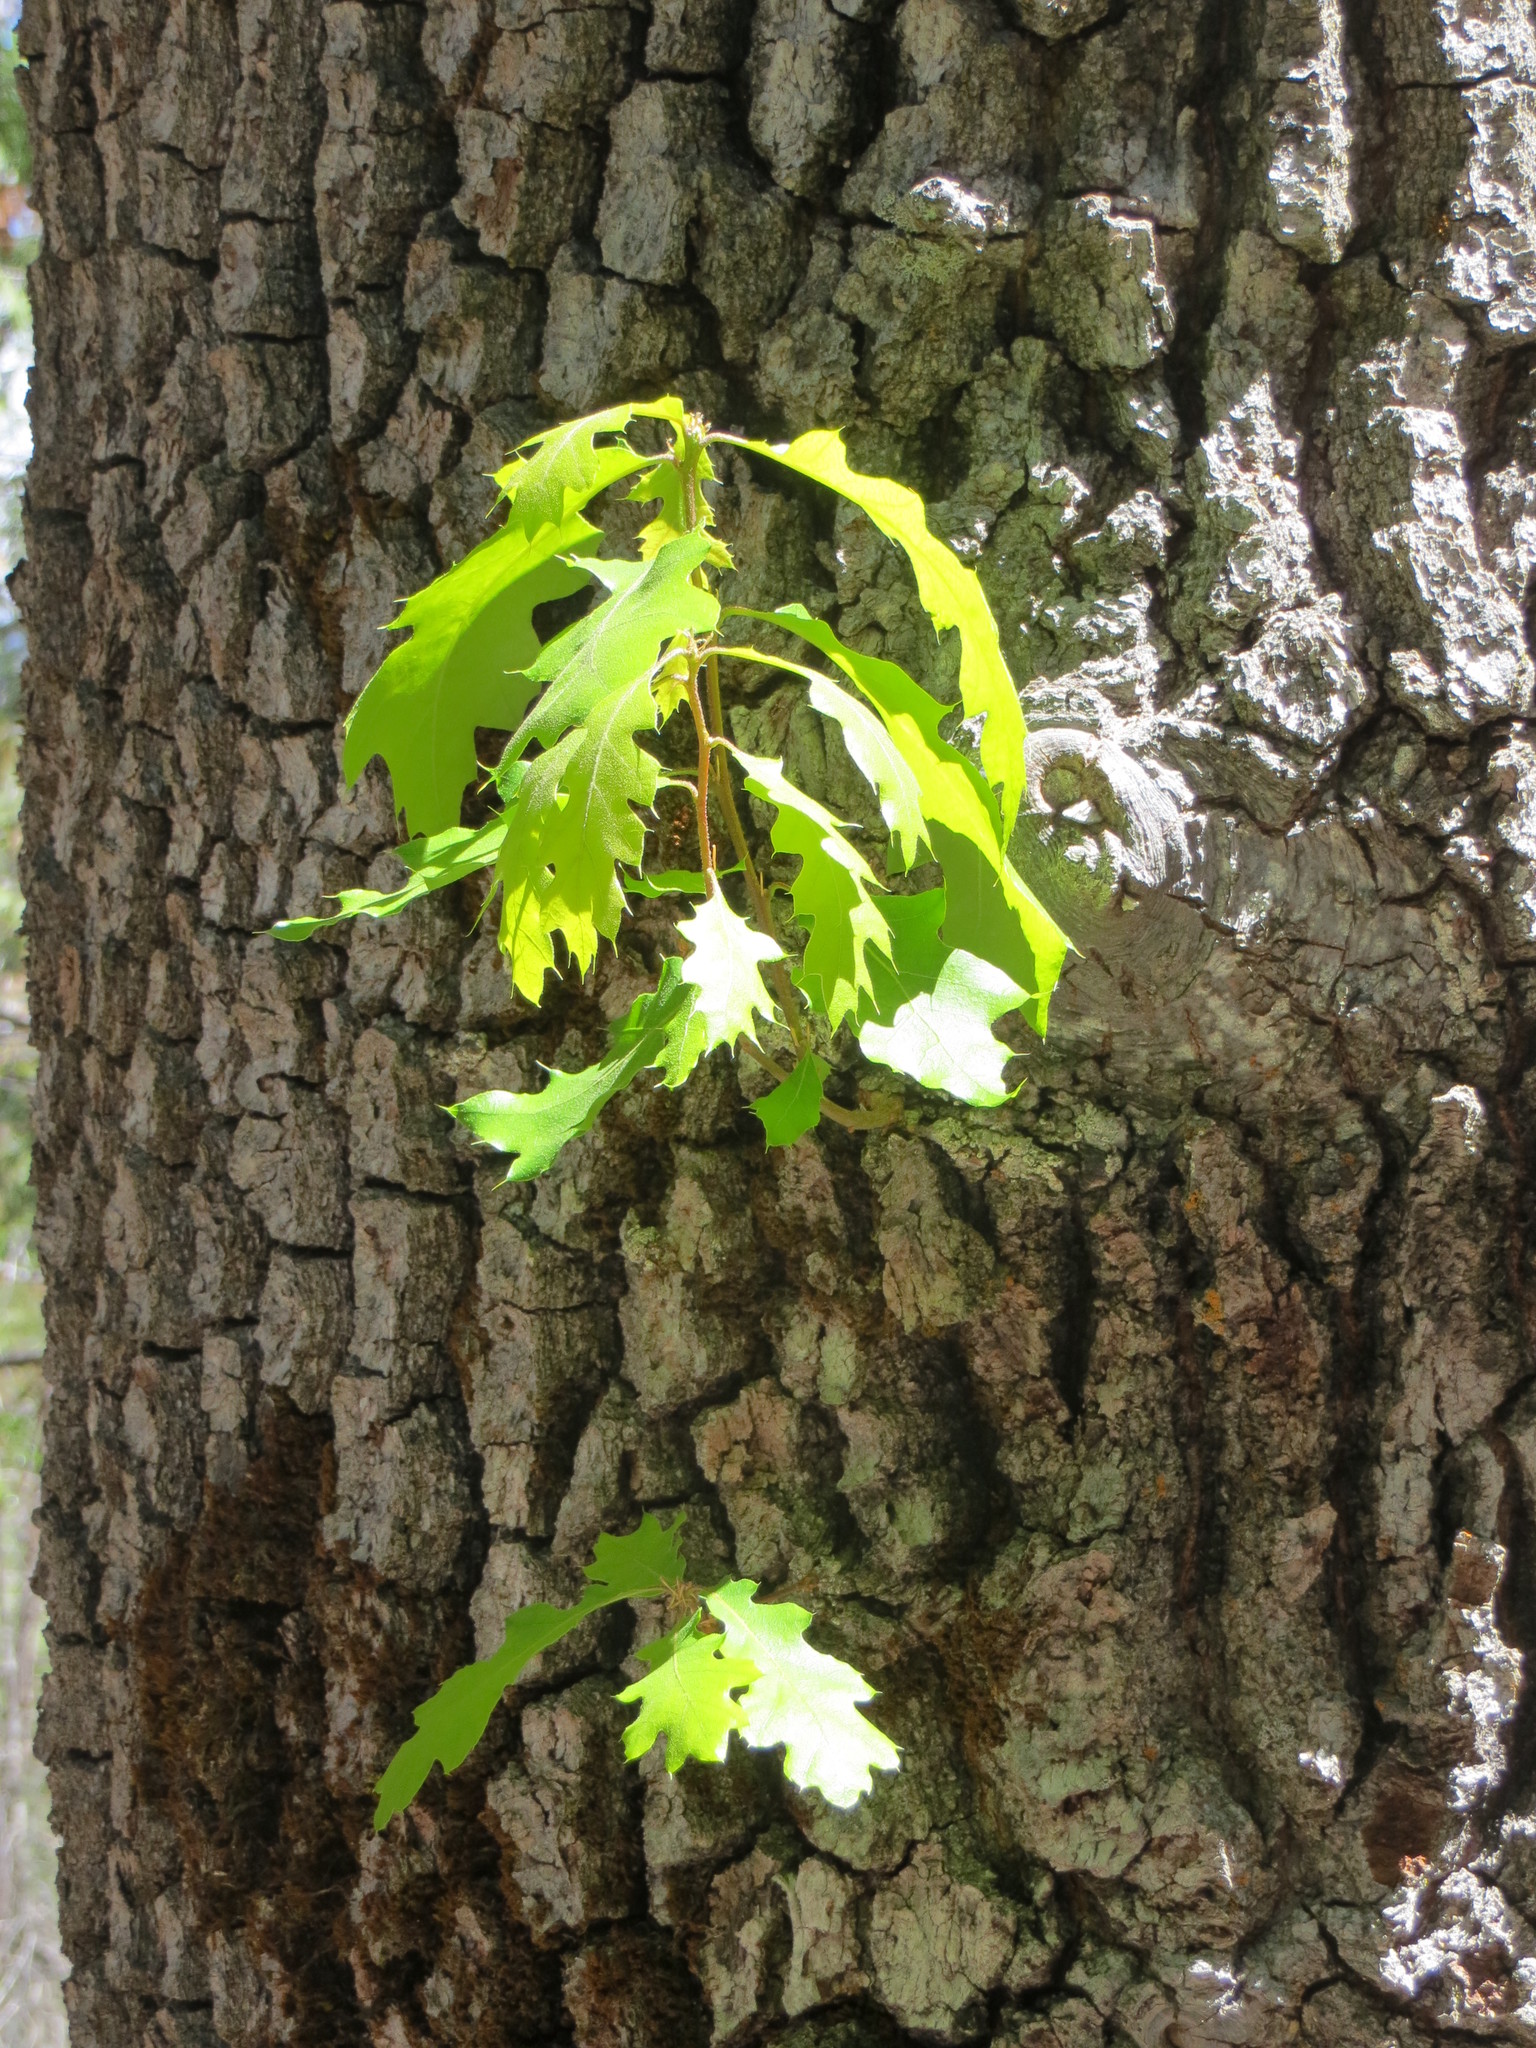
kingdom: Plantae
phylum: Tracheophyta
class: Magnoliopsida
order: Fagales
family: Fagaceae
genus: Quercus
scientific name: Quercus kelloggii
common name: California black oak
